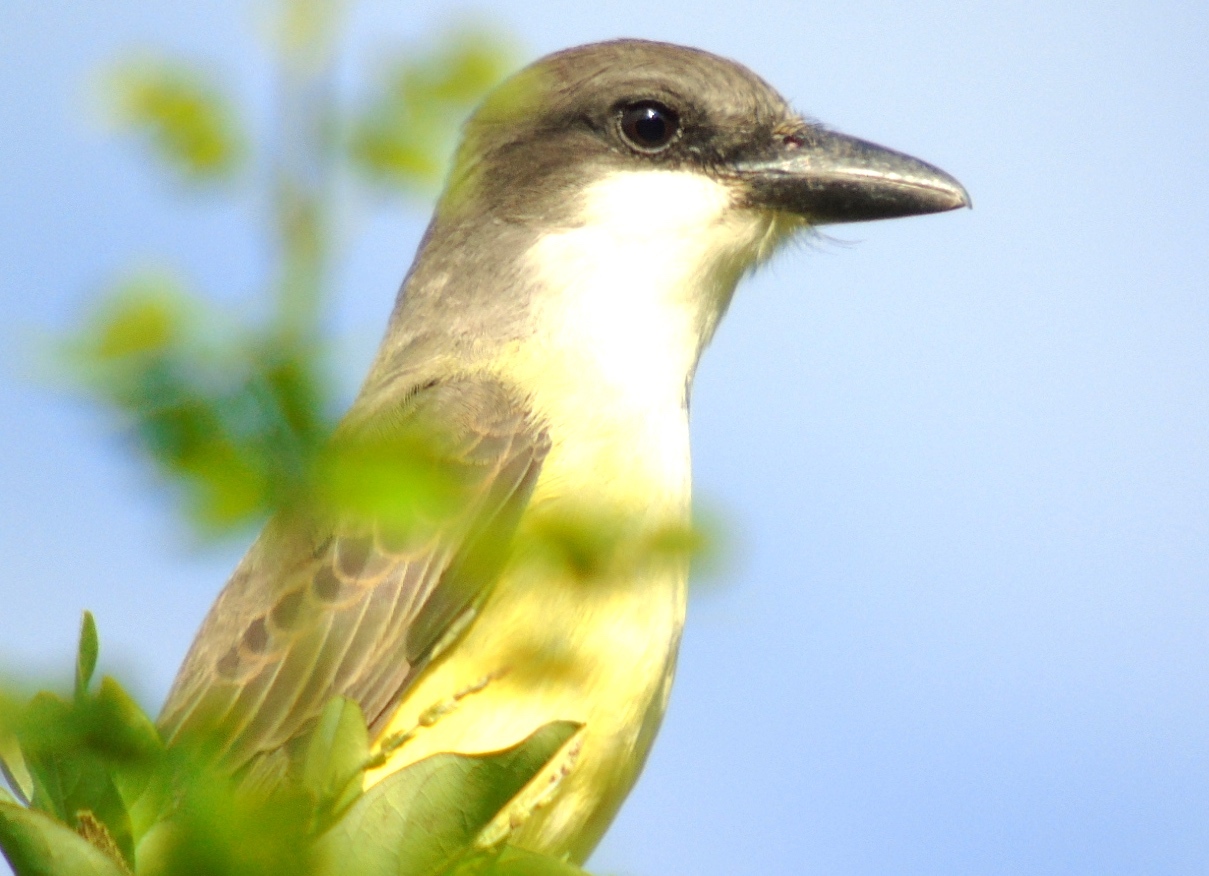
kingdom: Animalia
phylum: Chordata
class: Aves
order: Passeriformes
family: Tyrannidae
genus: Tyrannus
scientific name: Tyrannus crassirostris
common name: Thick-billed kingbird
